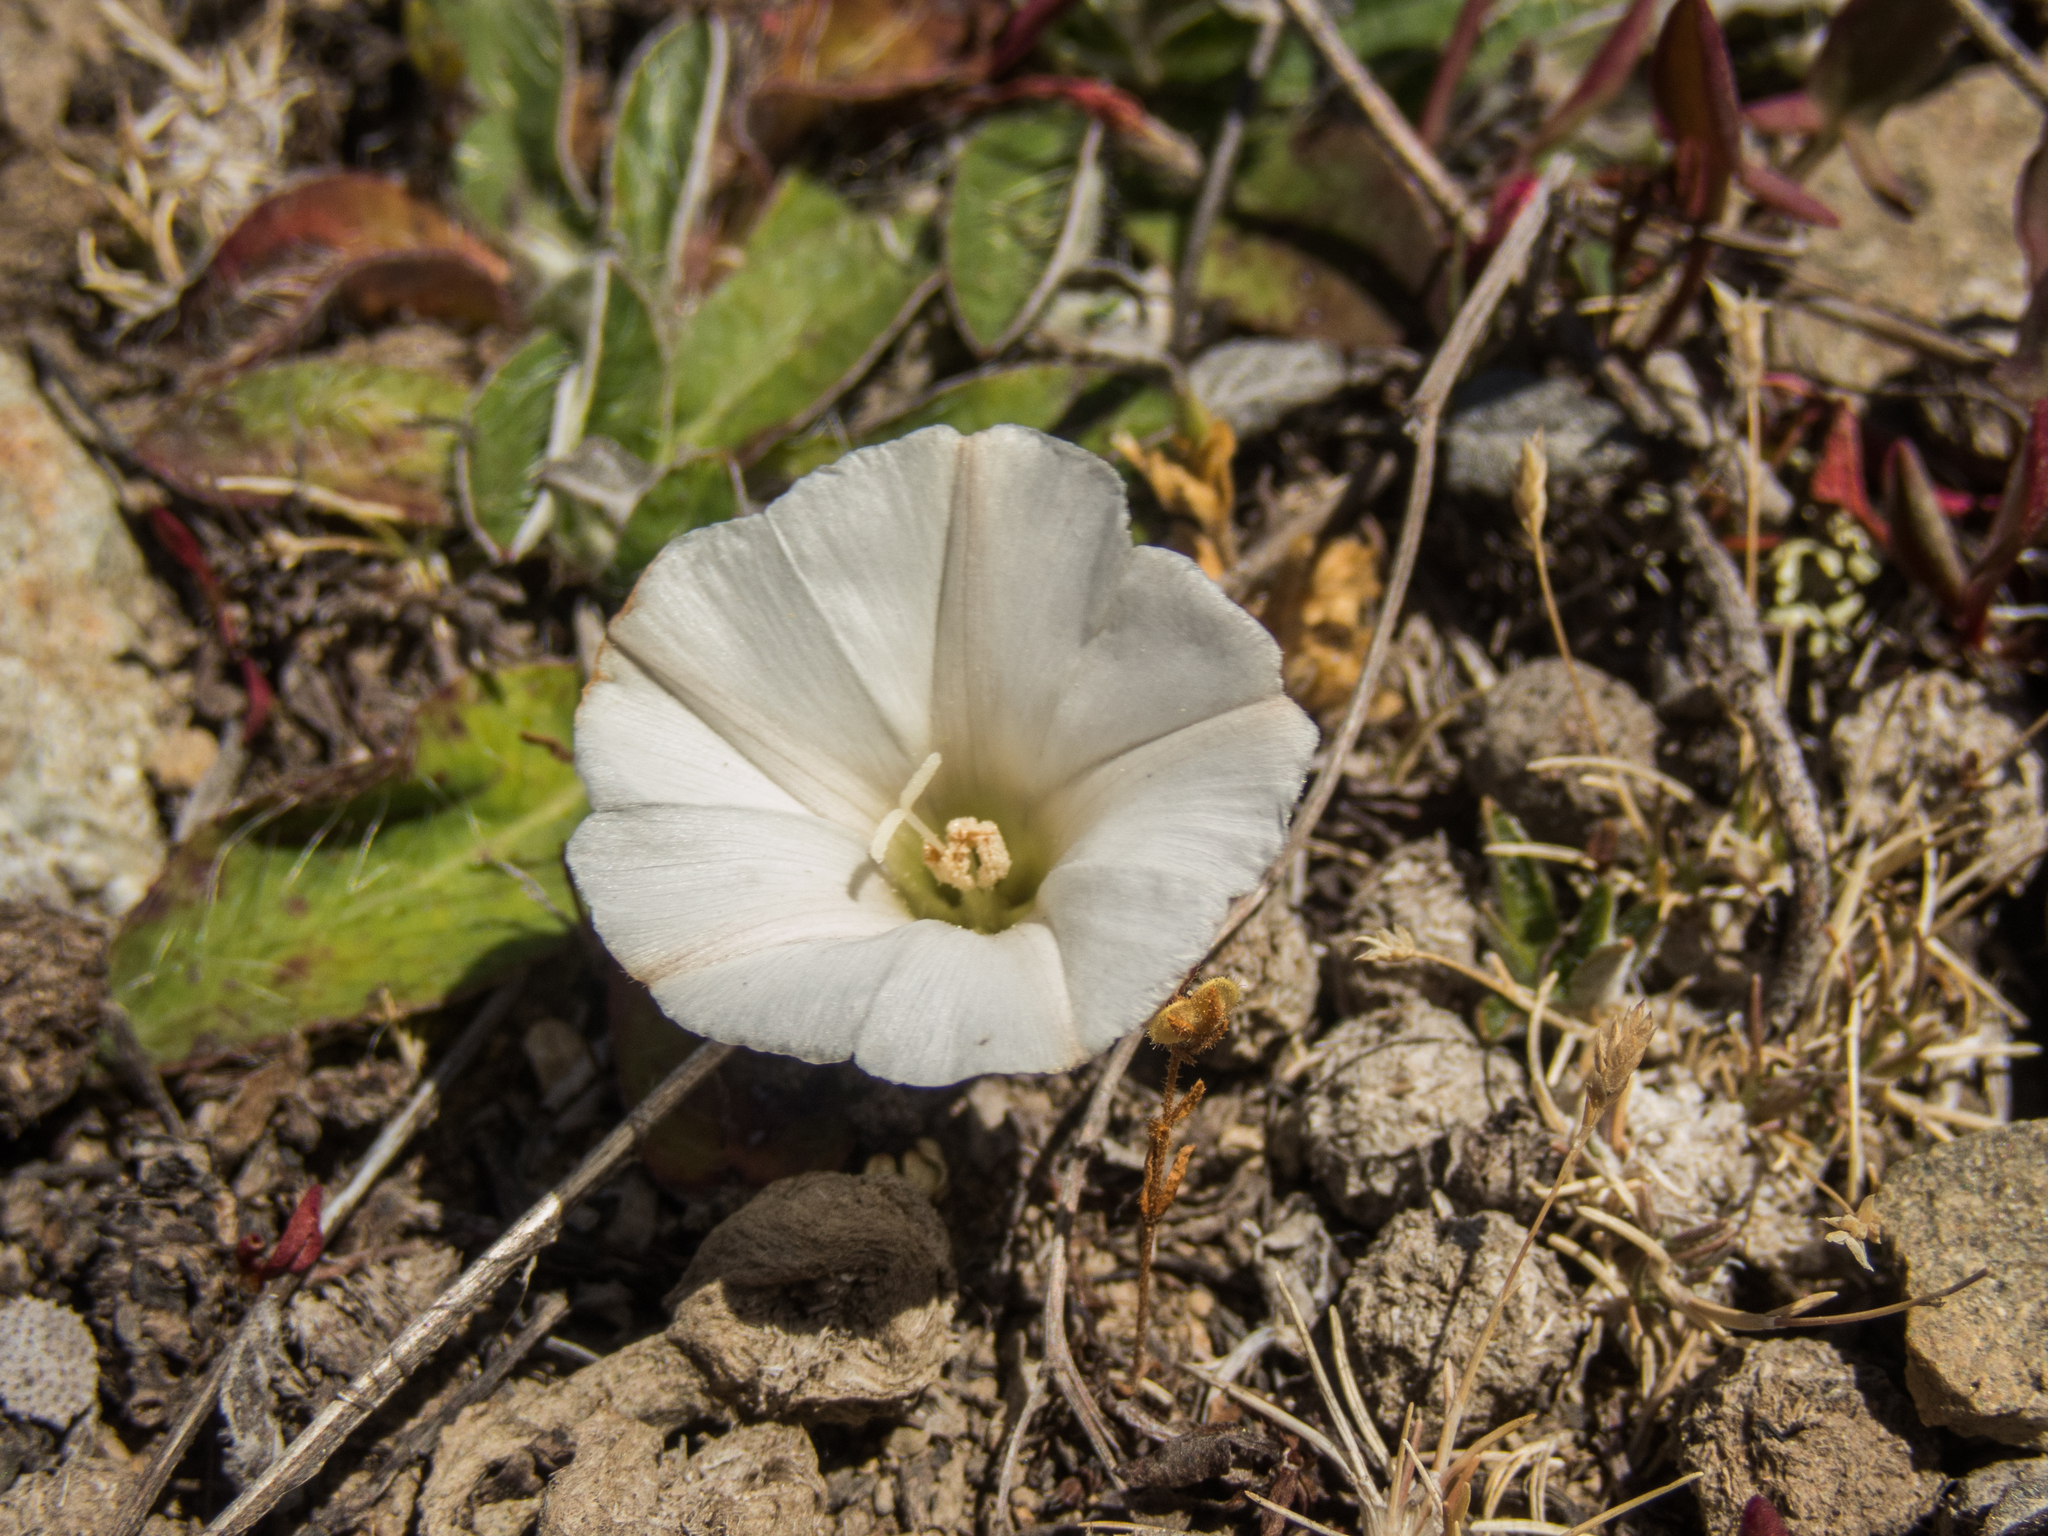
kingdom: Plantae
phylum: Tracheophyta
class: Magnoliopsida
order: Solanales
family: Convolvulaceae
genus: Convolvulus
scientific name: Convolvulus verecundus
